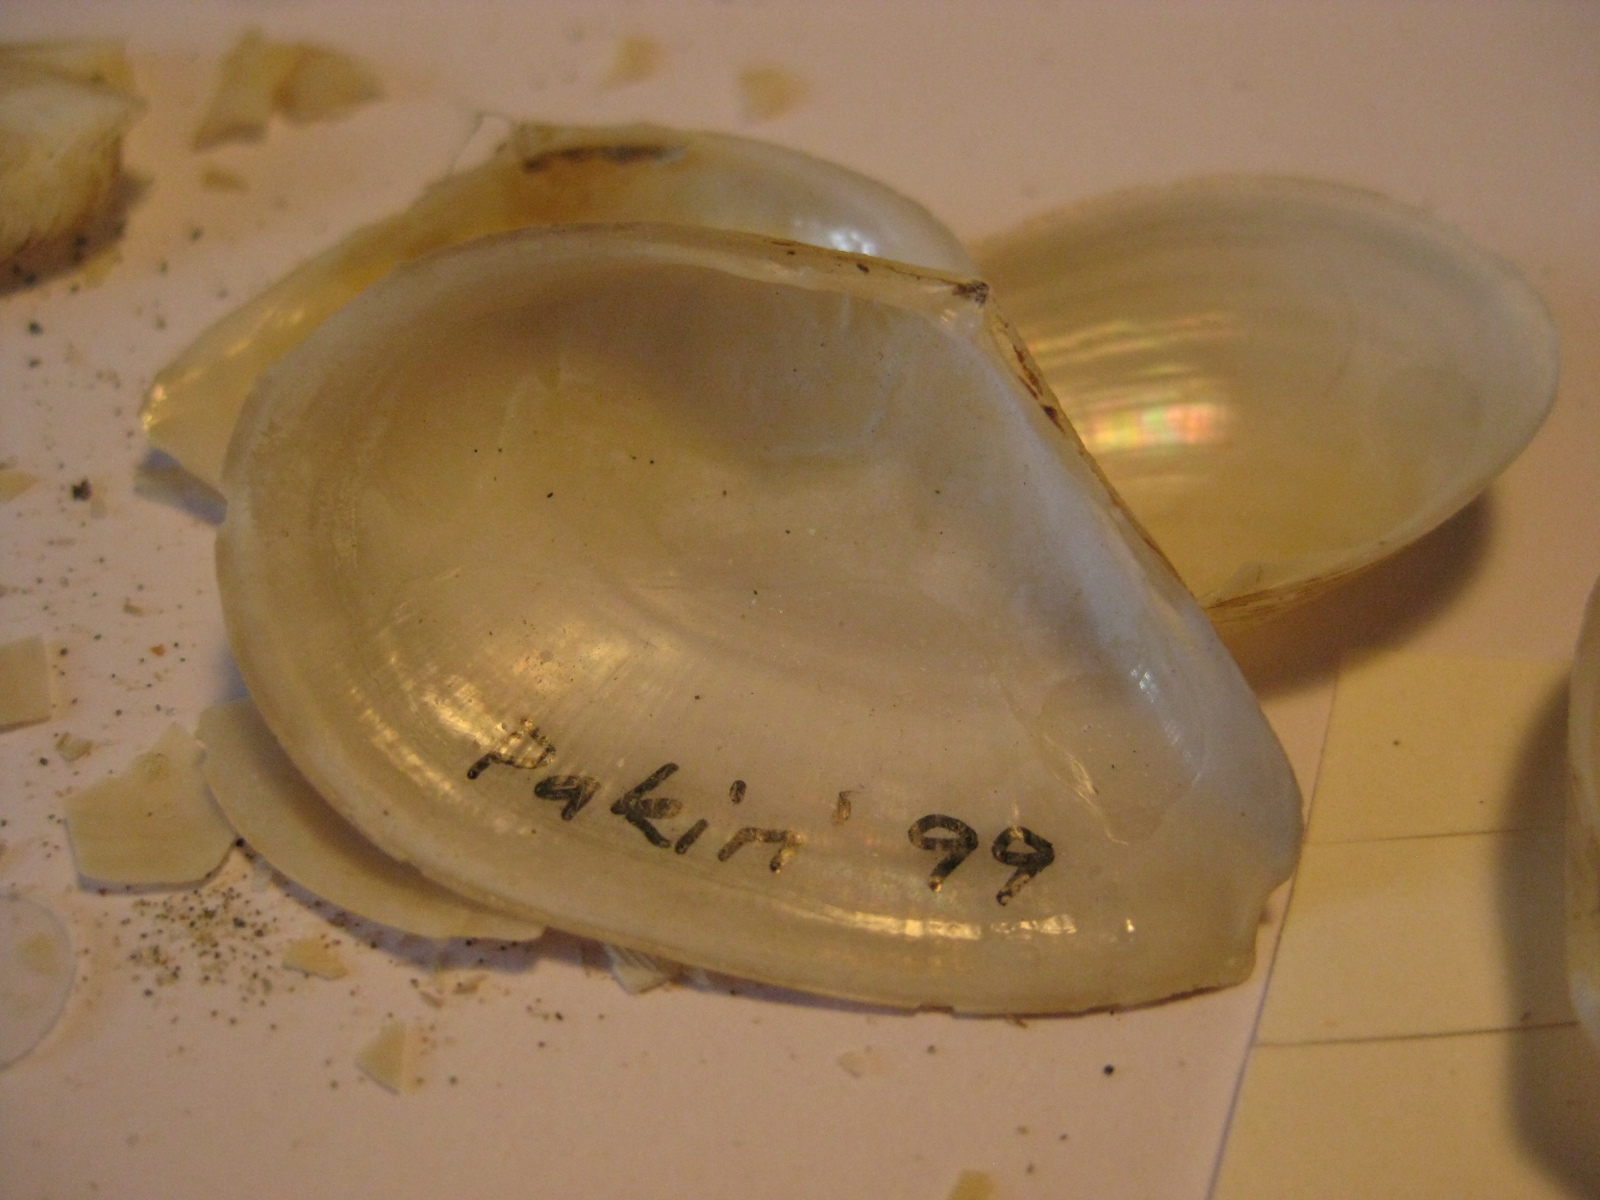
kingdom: Animalia
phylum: Mollusca
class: Bivalvia
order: Cardiida
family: Tellinidae
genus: Serratina
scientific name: Serratina charlottae
